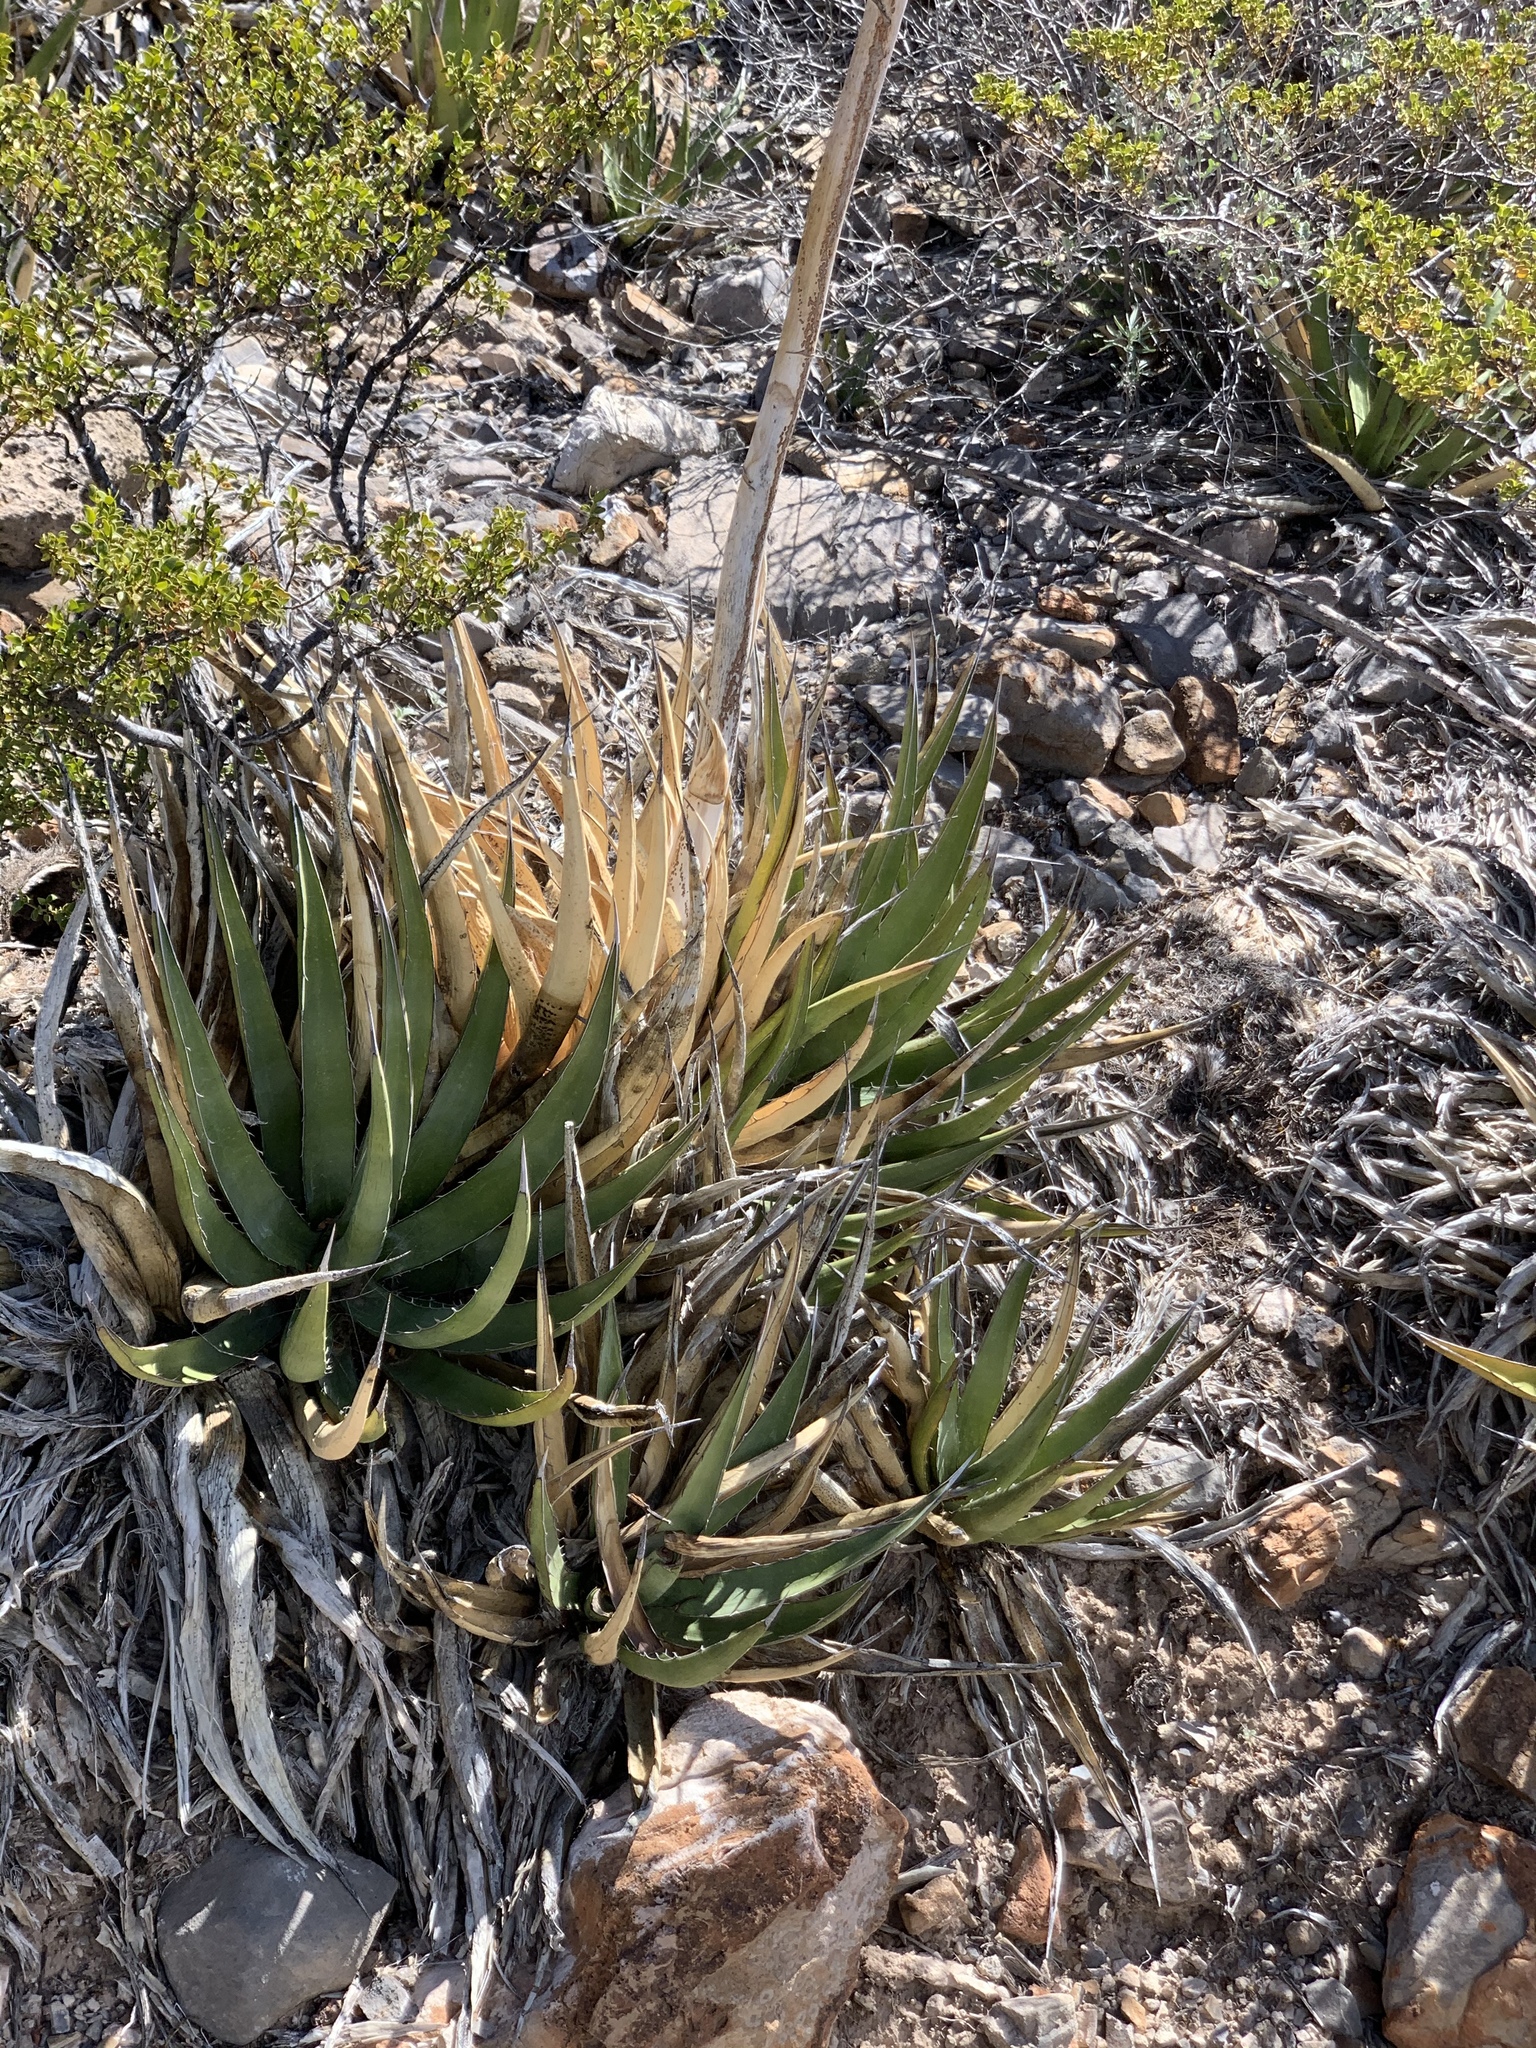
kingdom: Plantae
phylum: Tracheophyta
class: Liliopsida
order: Asparagales
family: Asparagaceae
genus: Agave
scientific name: Agave lechuguilla
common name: Lecheguilla agave
